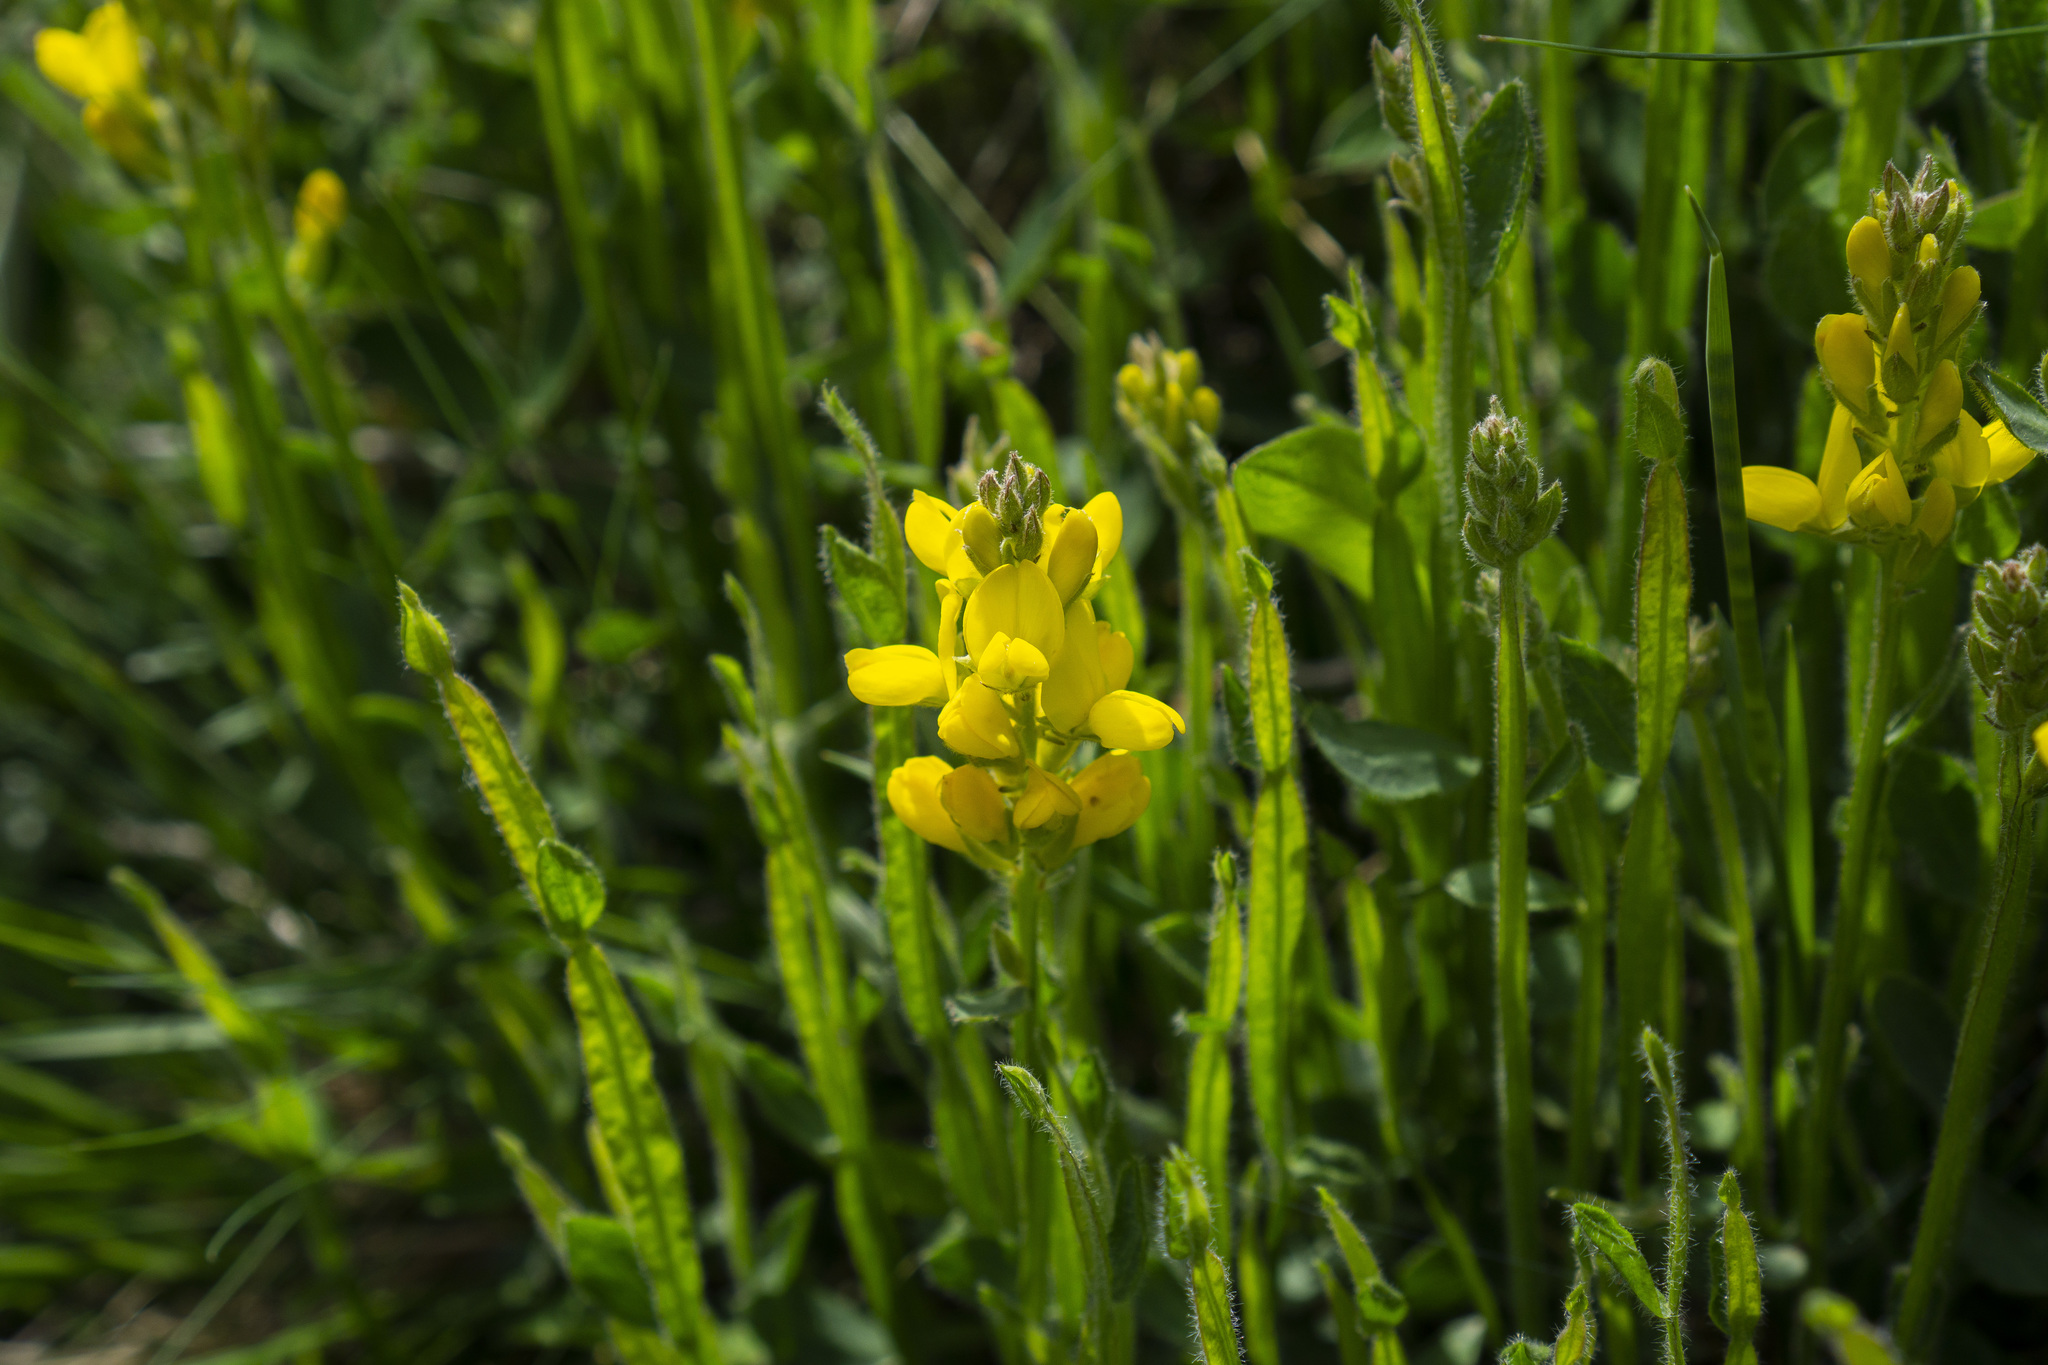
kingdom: Plantae
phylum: Tracheophyta
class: Magnoliopsida
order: Fabales
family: Fabaceae
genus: Genista
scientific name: Genista sagittalis
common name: Winged greenweed
